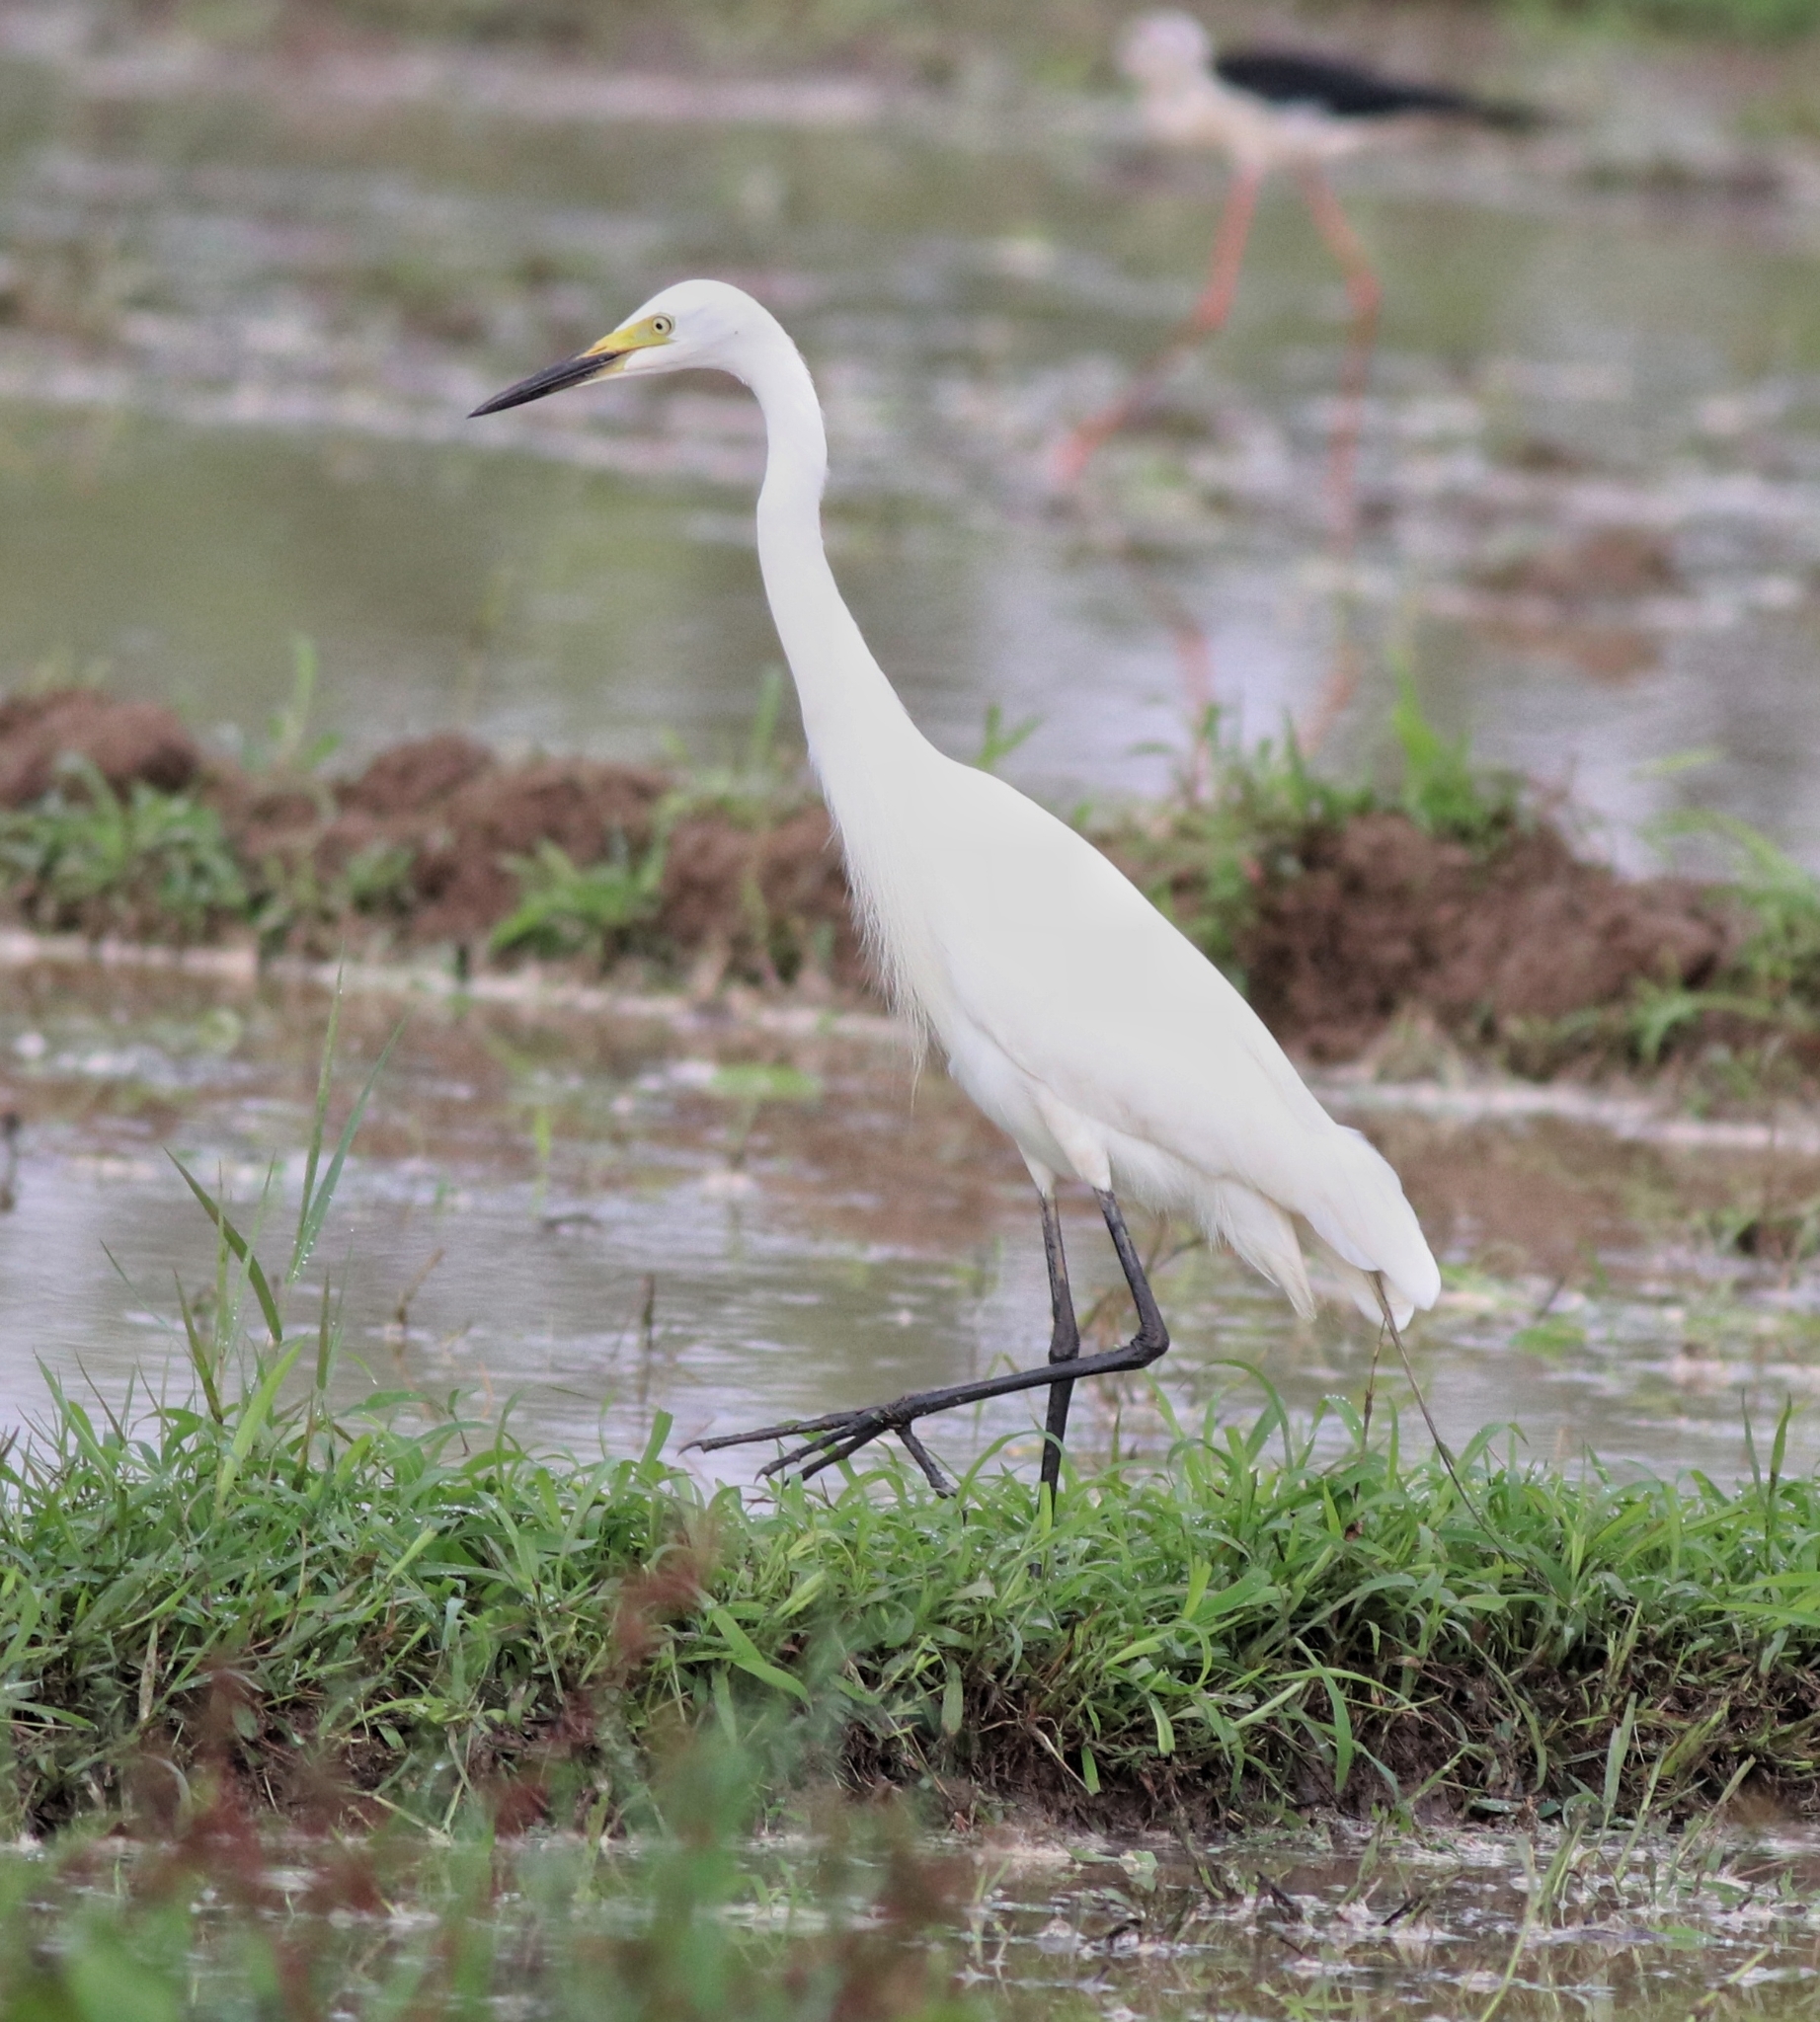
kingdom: Animalia
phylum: Chordata
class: Aves
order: Pelecaniformes
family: Ardeidae
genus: Egretta
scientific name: Egretta intermedia
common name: Intermediate egret
